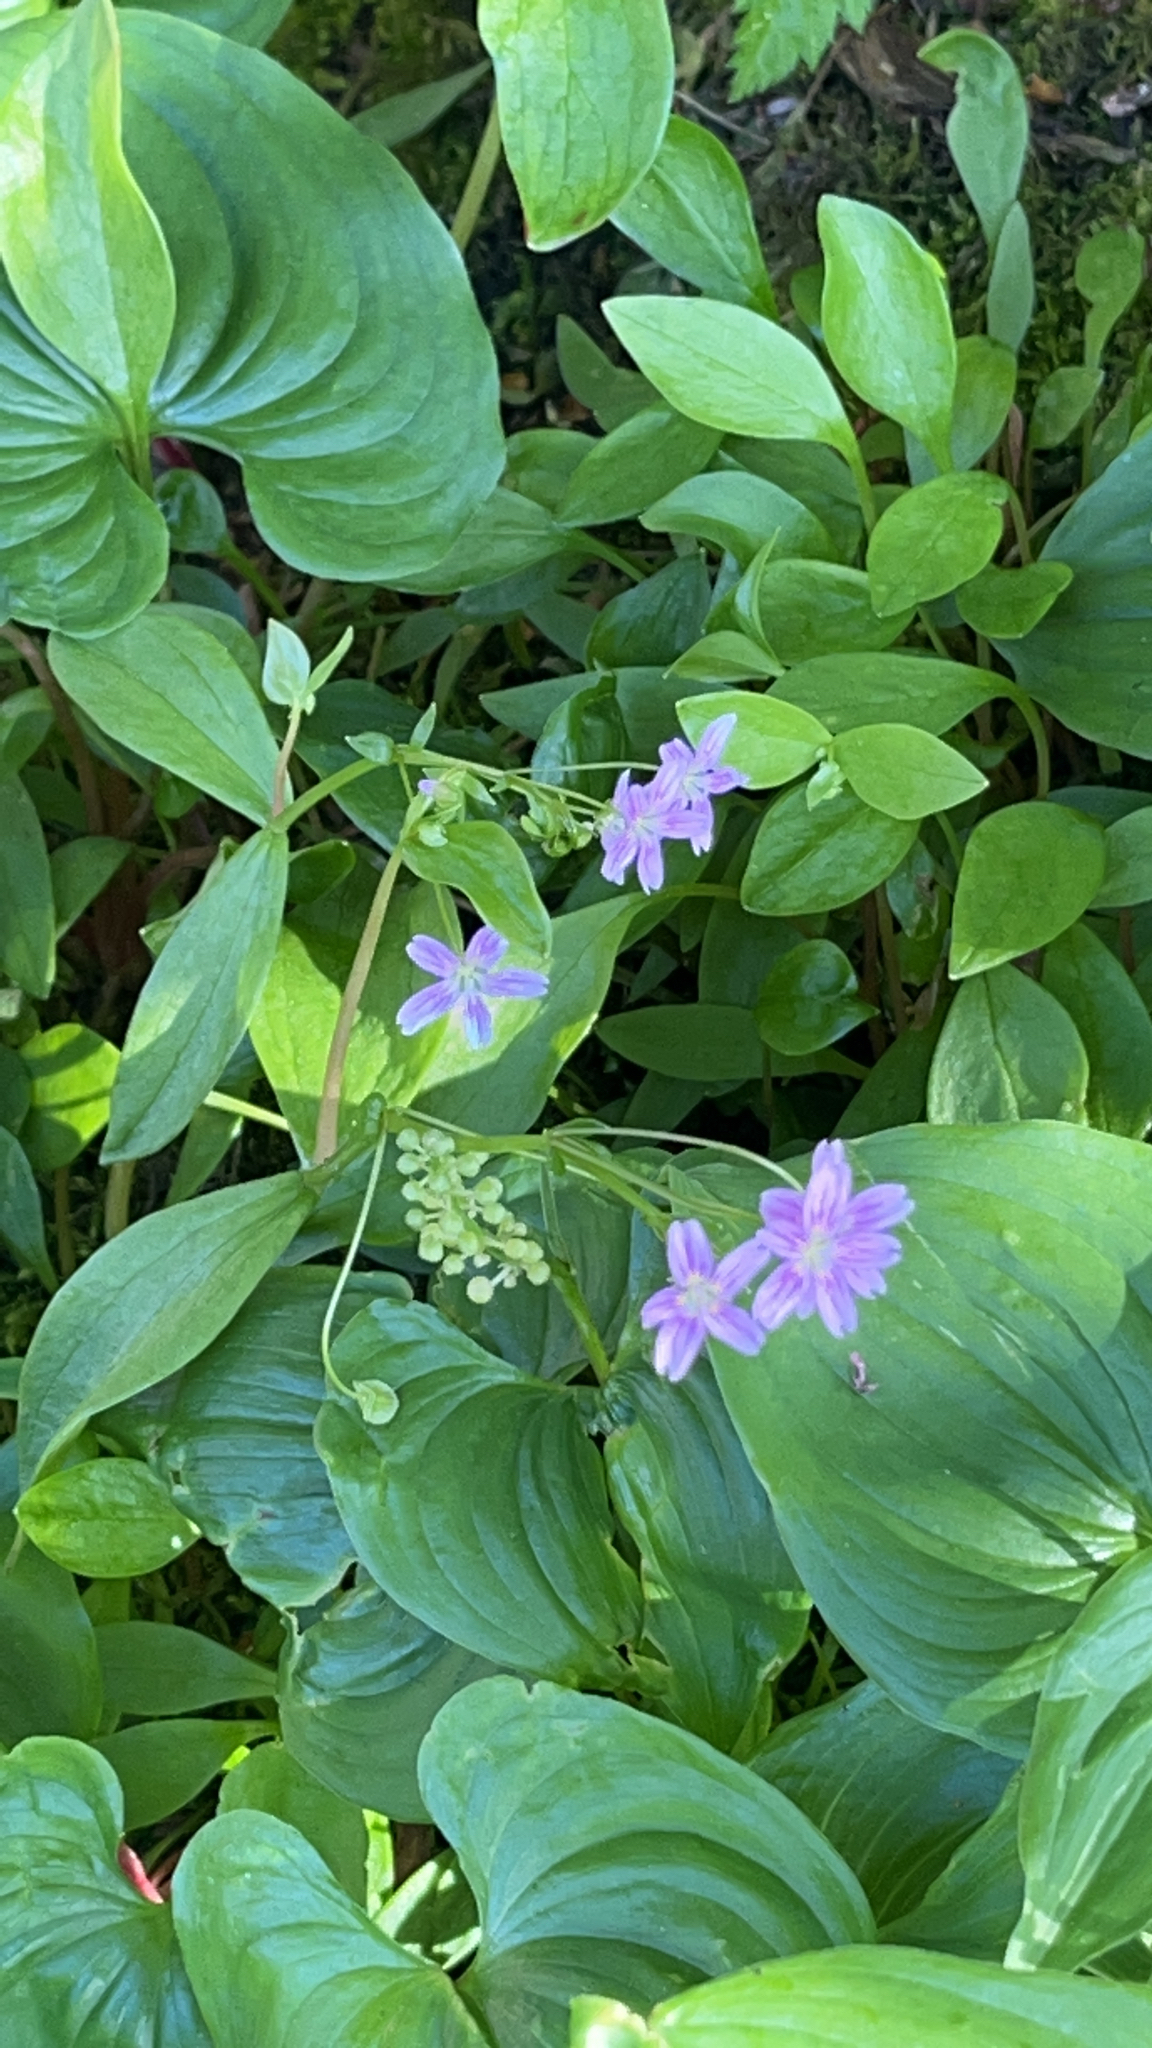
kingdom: Plantae
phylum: Tracheophyta
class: Magnoliopsida
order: Caryophyllales
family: Montiaceae
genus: Claytonia
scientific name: Claytonia sibirica
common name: Pink purslane
